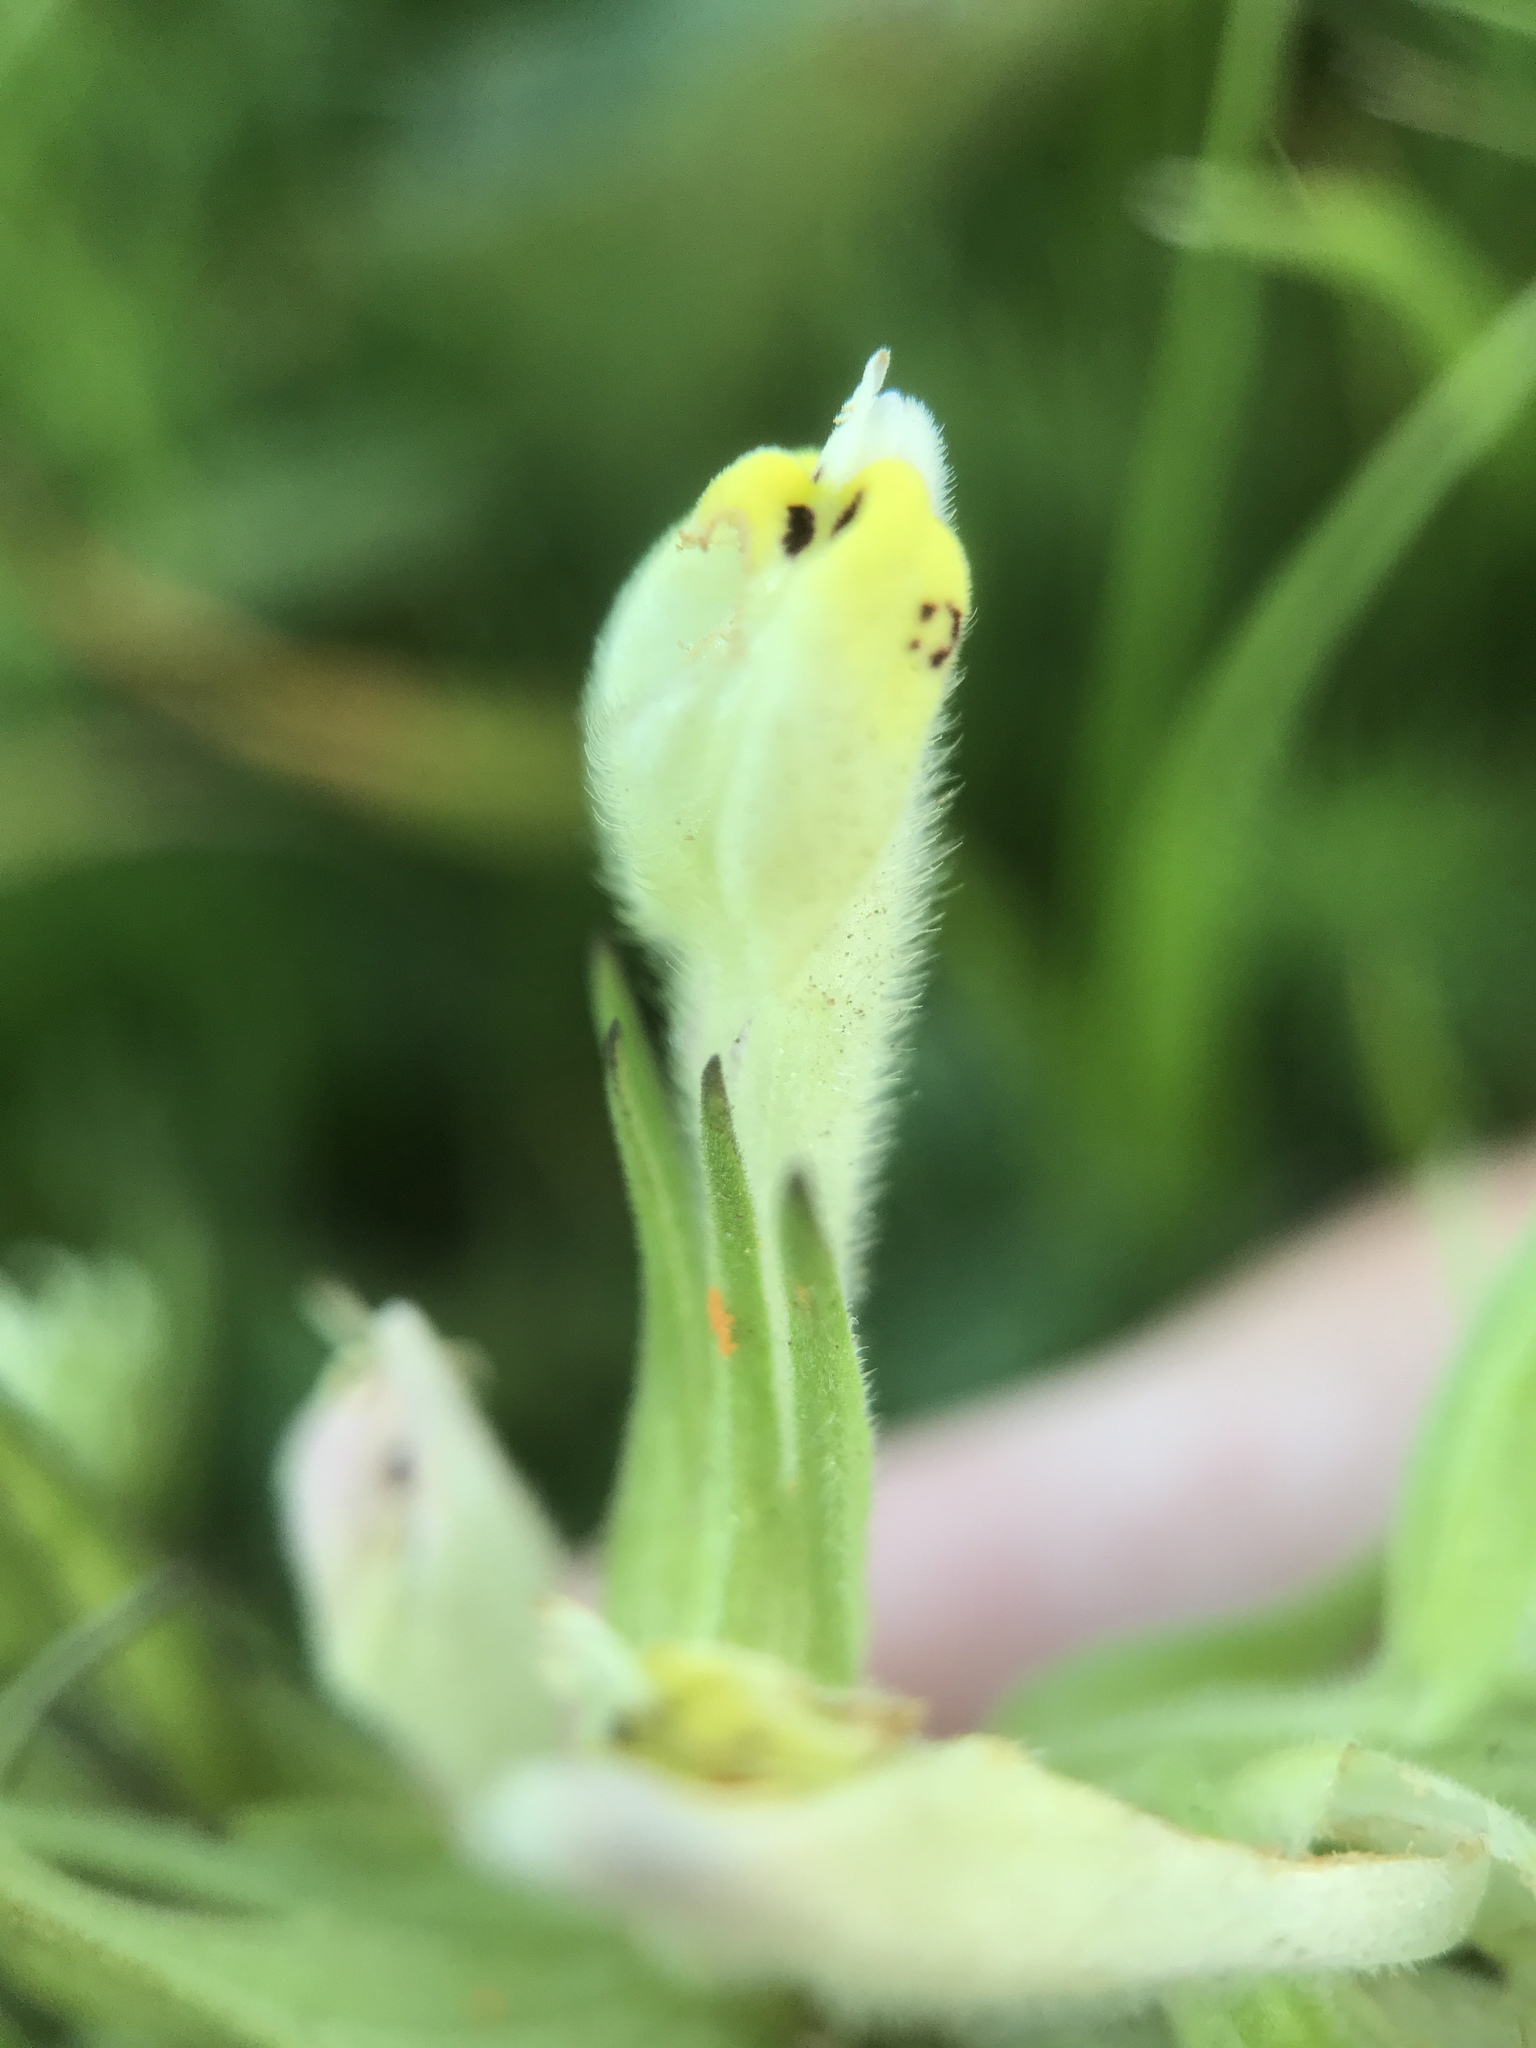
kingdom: Plantae
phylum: Tracheophyta
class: Magnoliopsida
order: Lamiales
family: Orobanchaceae
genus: Castilleja
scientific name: Castilleja densiflora
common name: Dense-flower indian paintbrush
